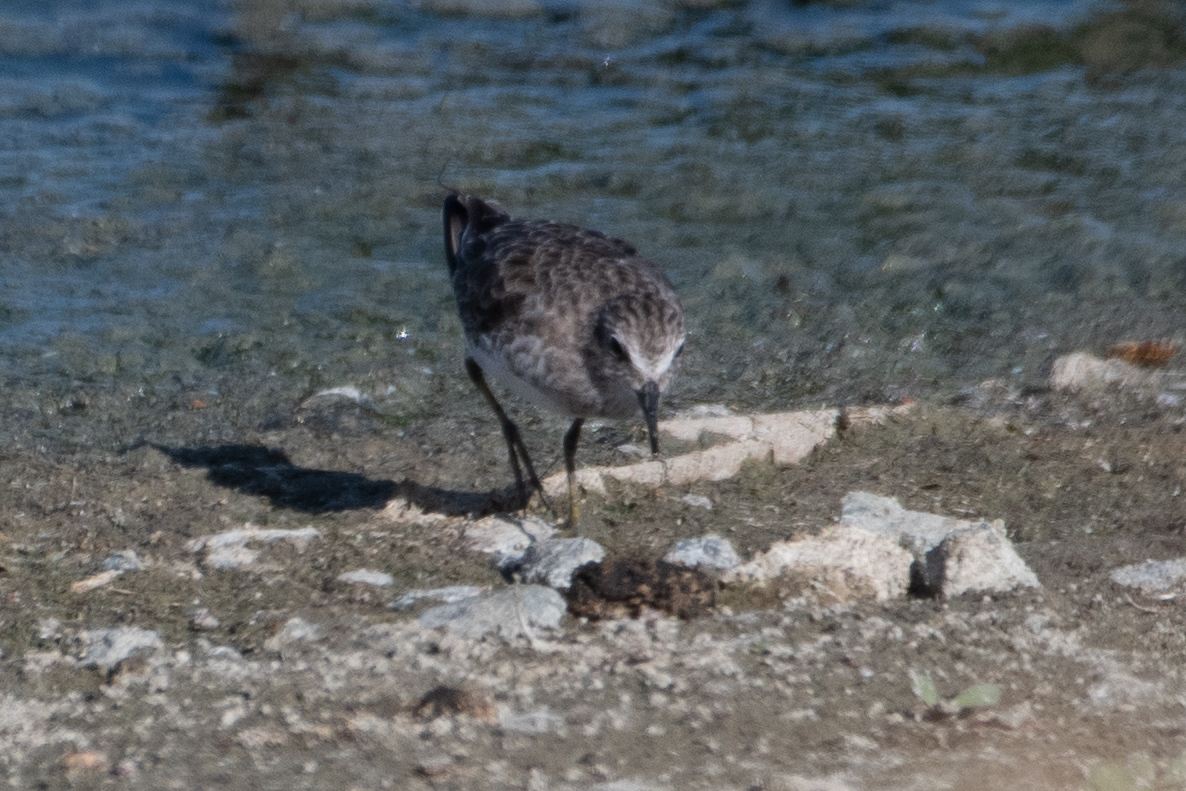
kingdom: Animalia
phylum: Chordata
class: Aves
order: Charadriiformes
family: Scolopacidae
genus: Calidris
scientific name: Calidris minutilla
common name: Least sandpiper
